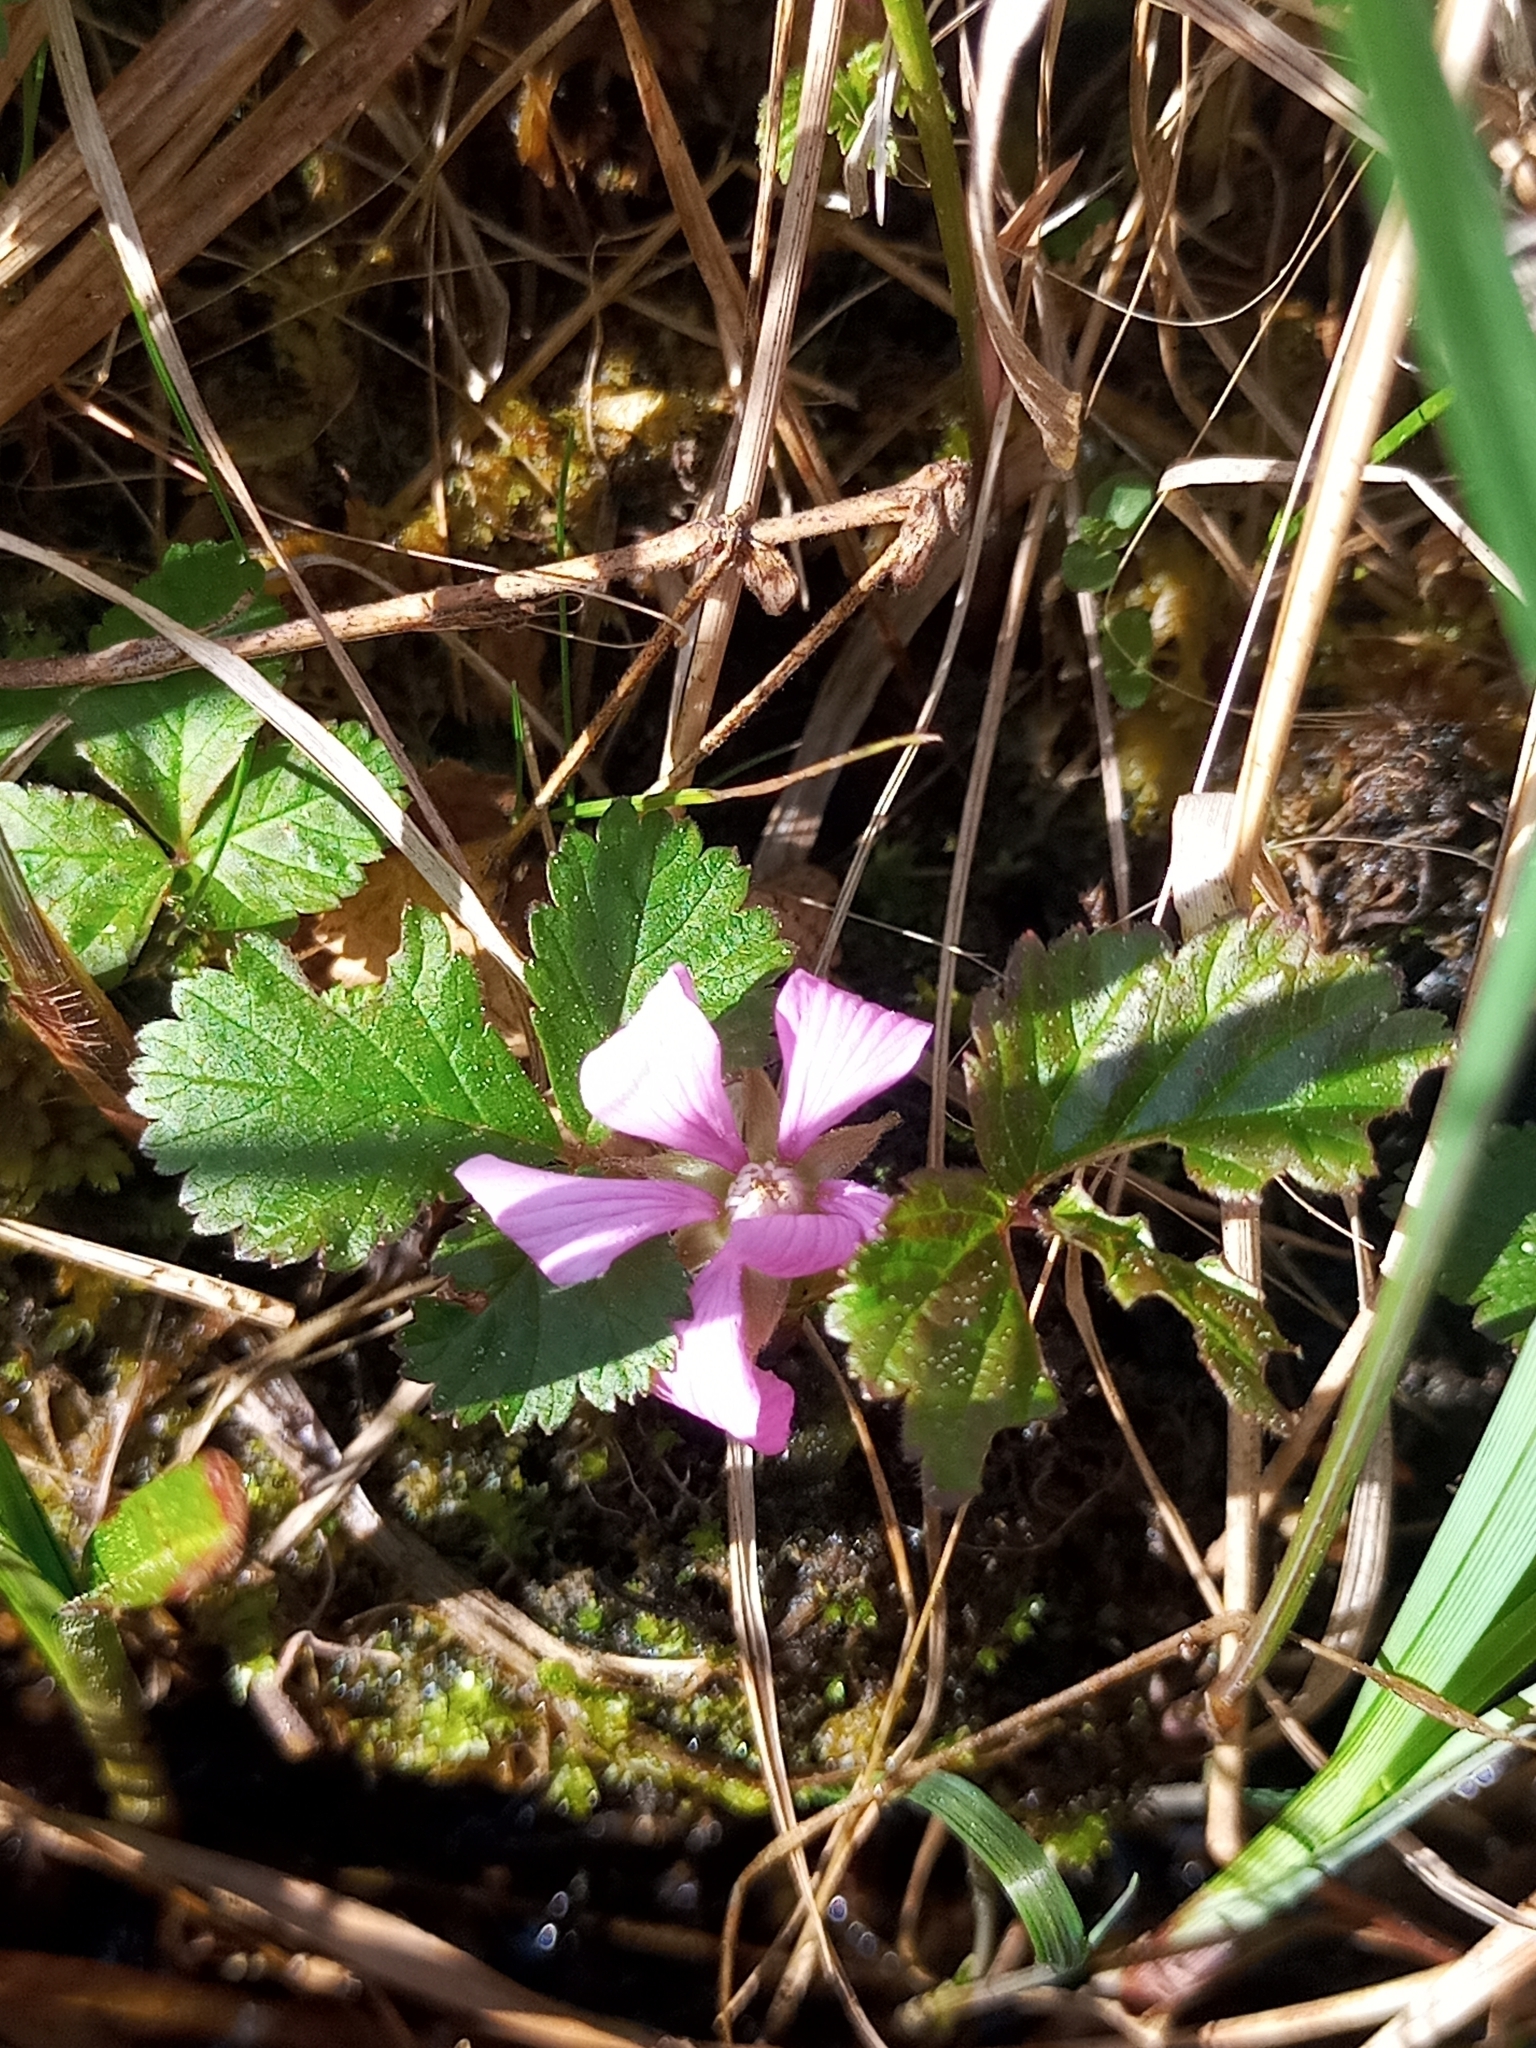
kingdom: Plantae
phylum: Tracheophyta
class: Magnoliopsida
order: Rosales
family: Rosaceae
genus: Rubus
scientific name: Rubus arcticus
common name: Arctic bramble
